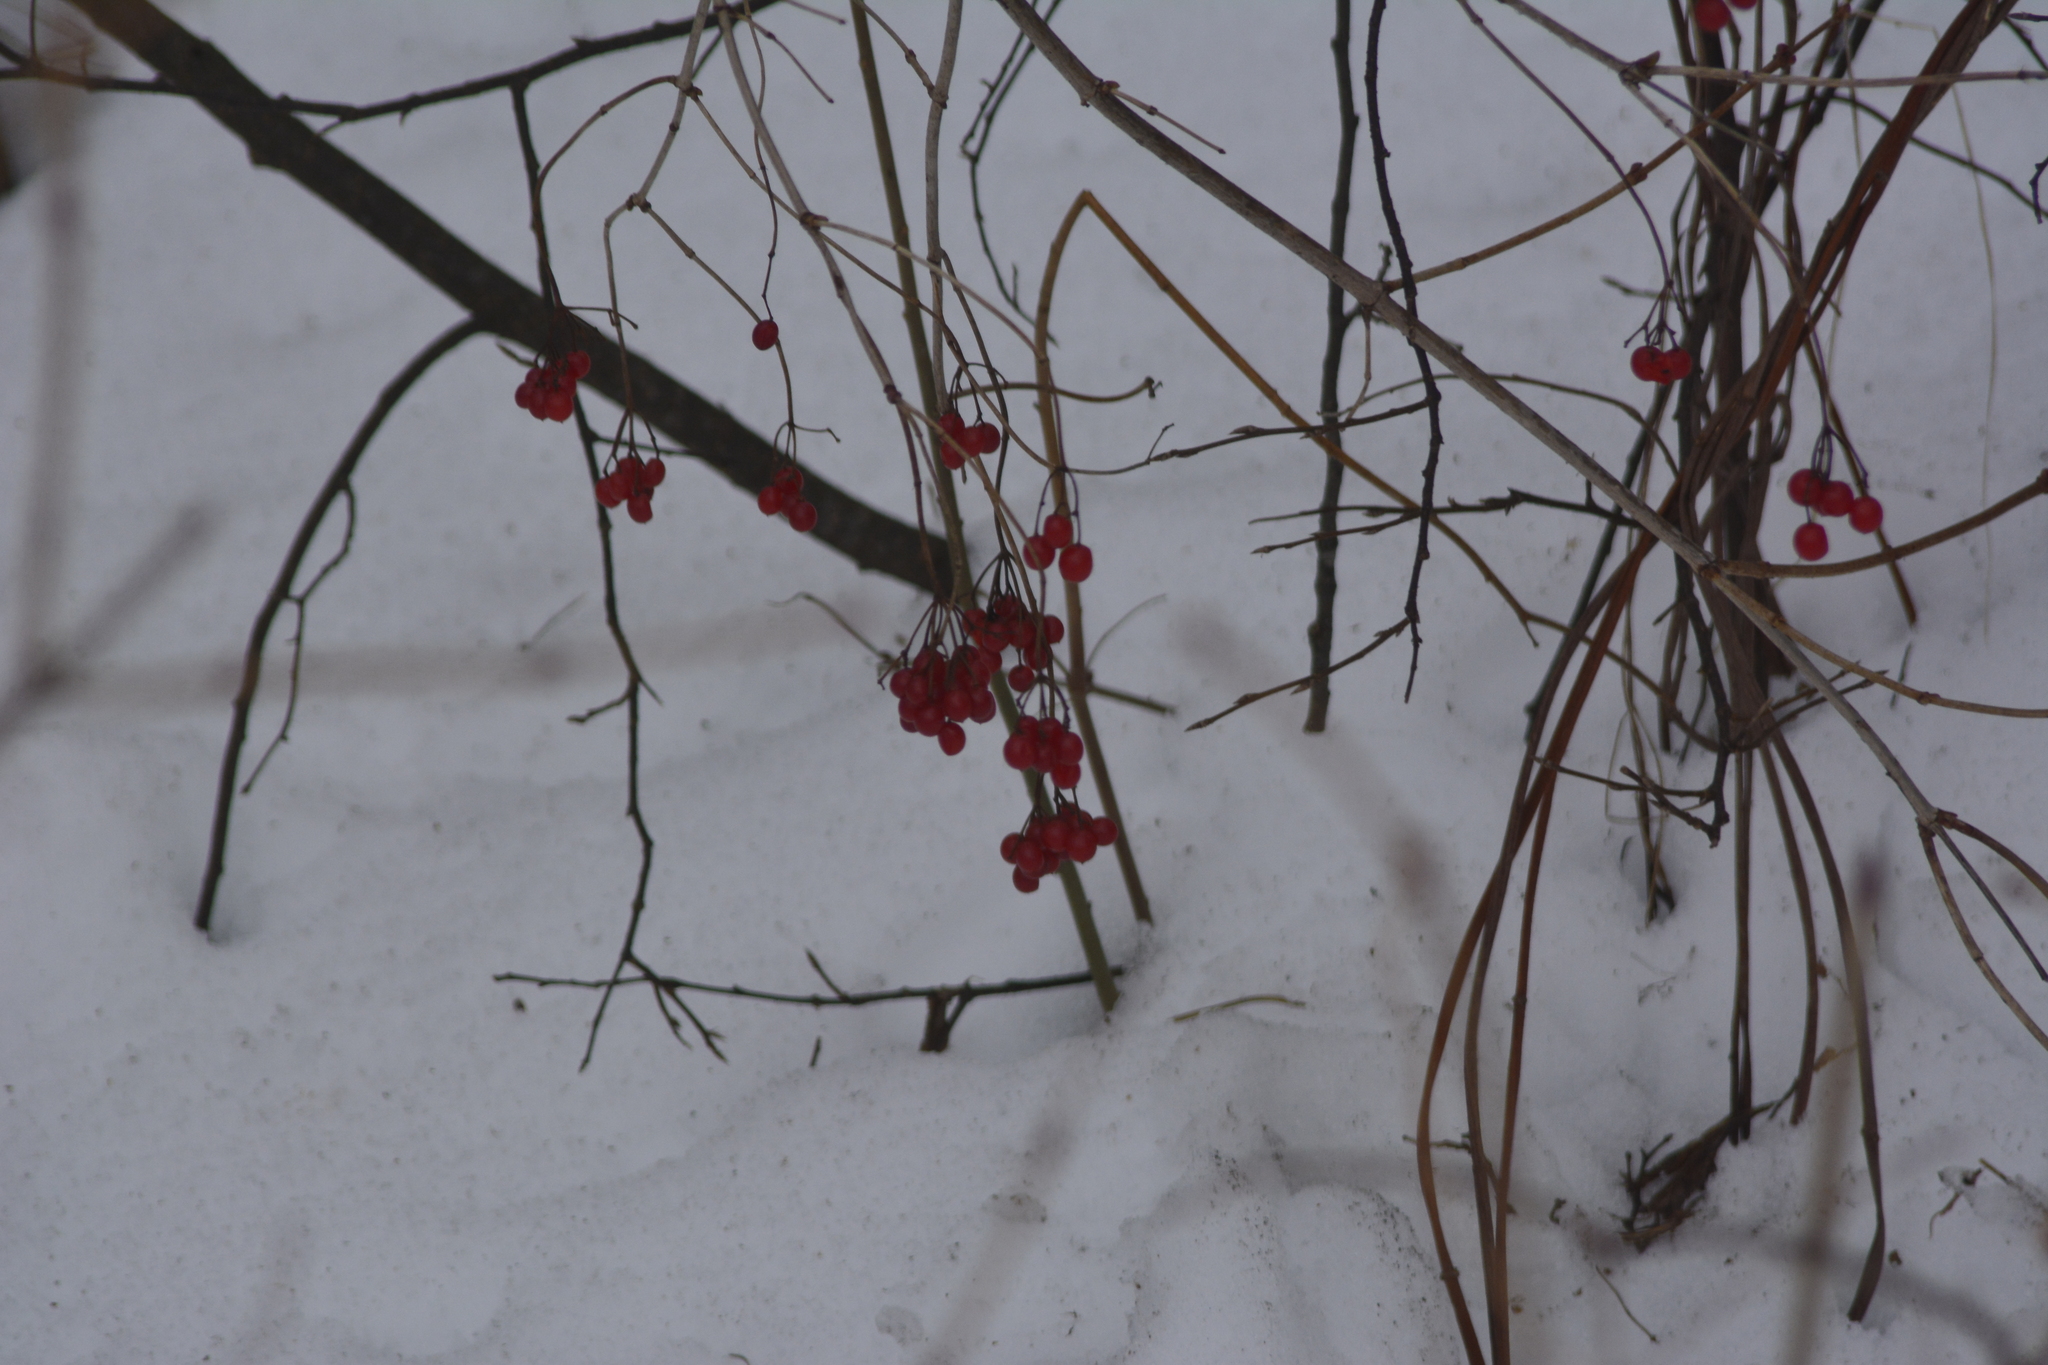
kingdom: Plantae
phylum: Tracheophyta
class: Magnoliopsida
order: Dipsacales
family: Viburnaceae
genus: Viburnum
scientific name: Viburnum opulus
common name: Guelder-rose
